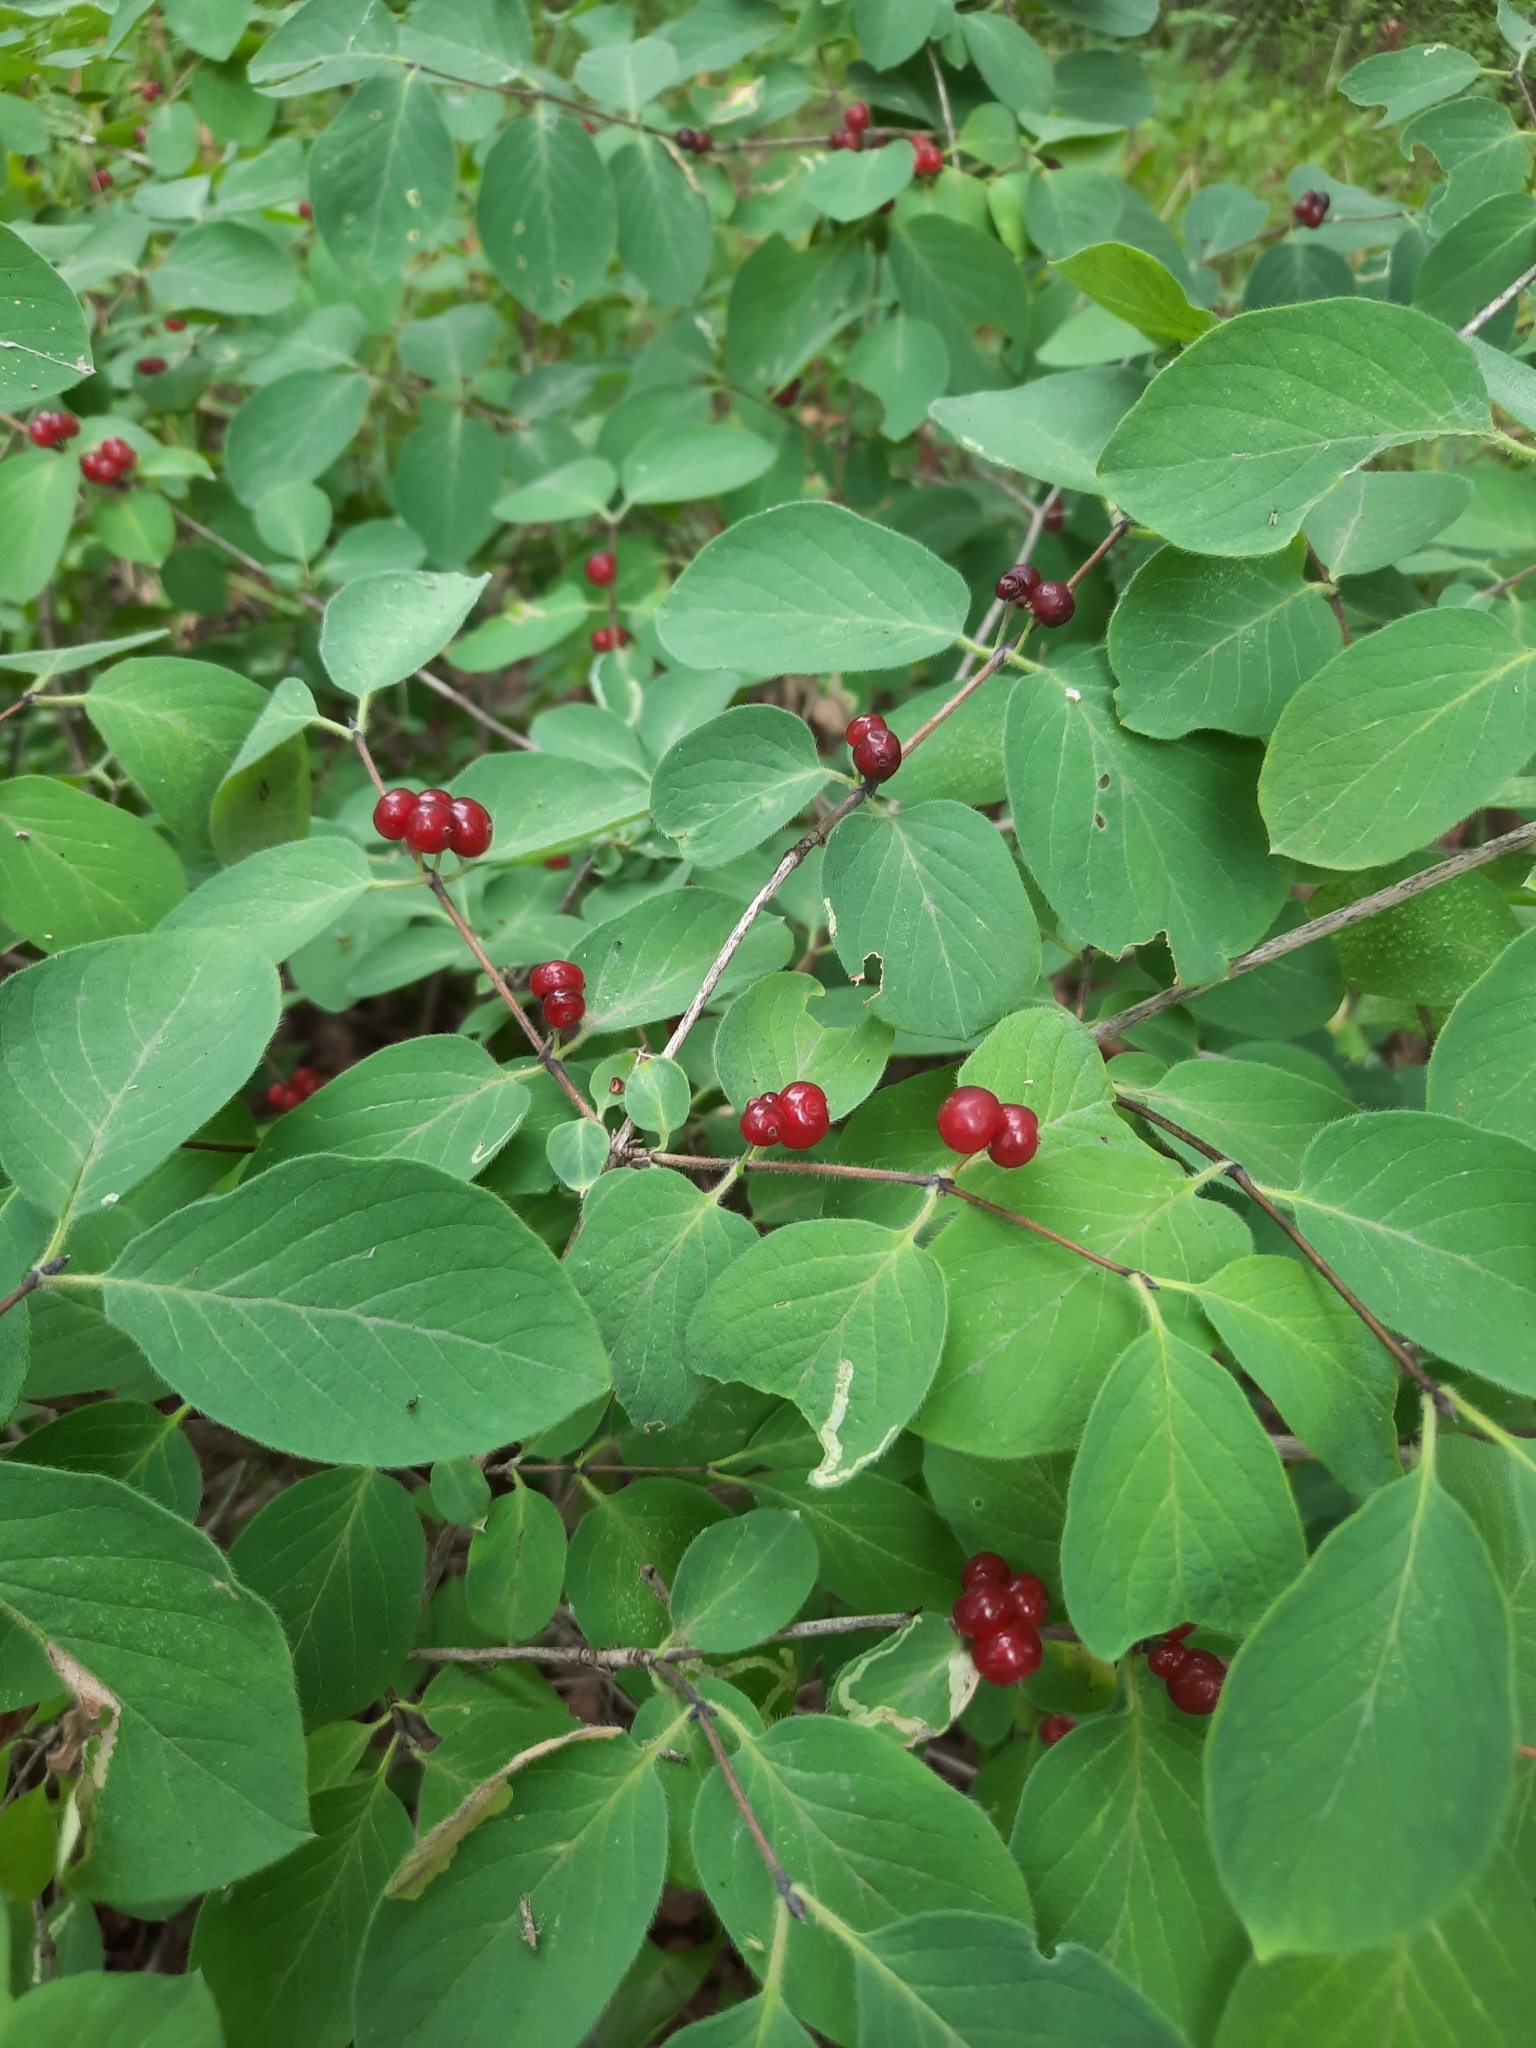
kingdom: Plantae
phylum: Tracheophyta
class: Magnoliopsida
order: Dipsacales
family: Caprifoliaceae
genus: Lonicera
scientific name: Lonicera xylosteum
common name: Fly honeysuckle
